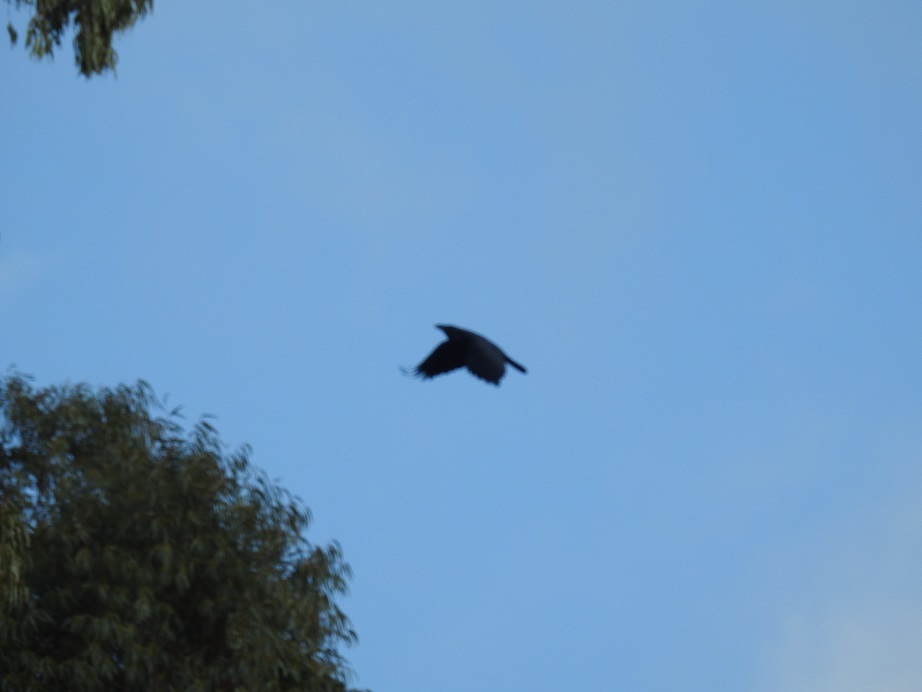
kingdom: Animalia
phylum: Chordata
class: Aves
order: Passeriformes
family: Corvidae
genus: Corvus
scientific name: Corvus corax
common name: Common raven
